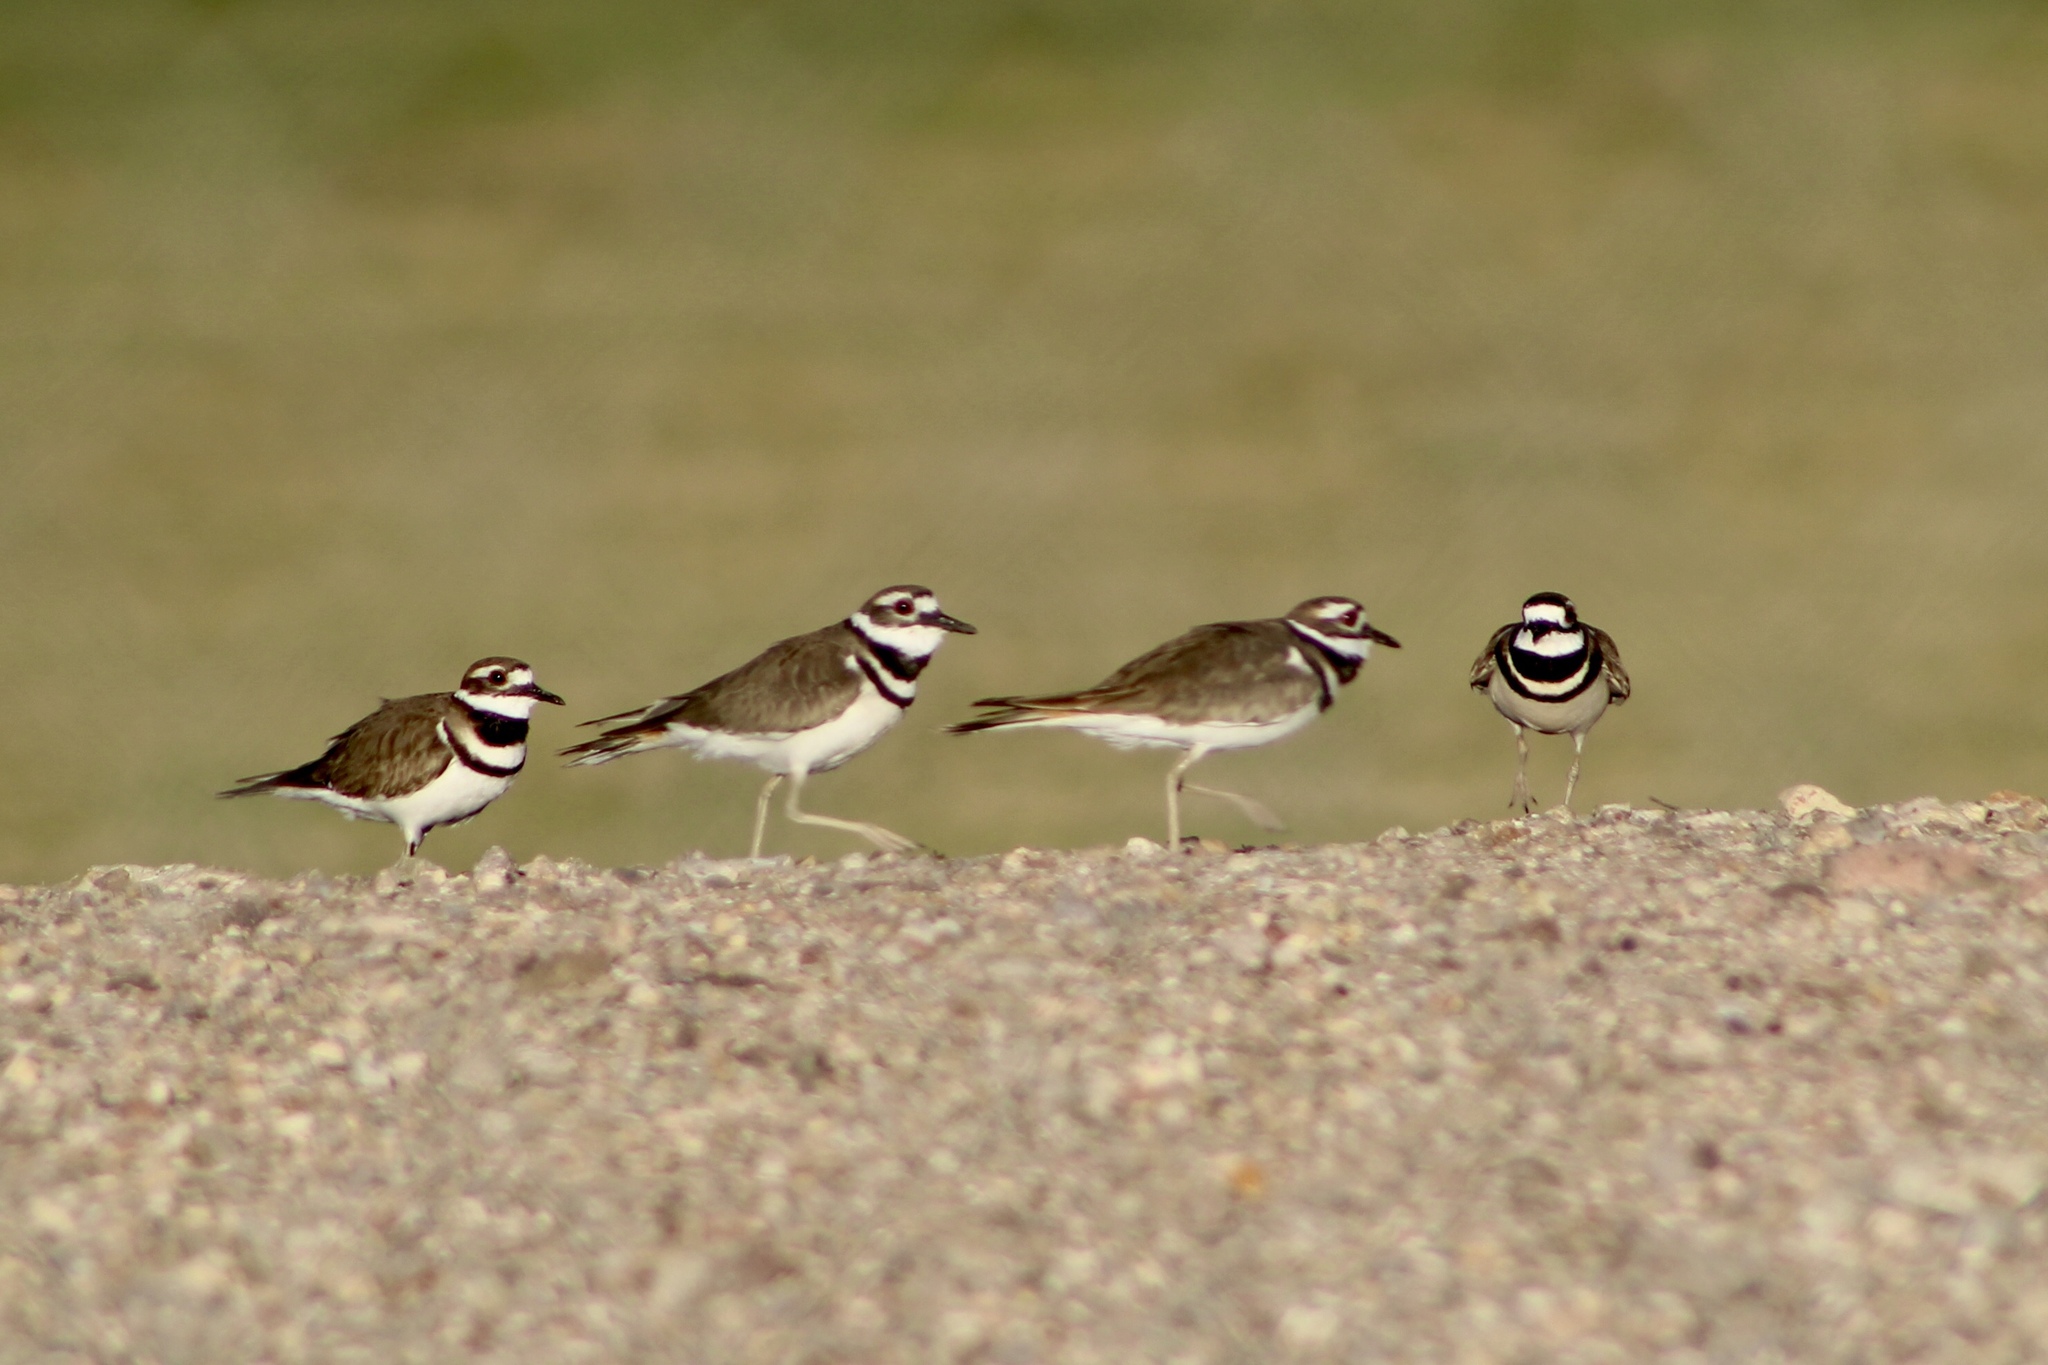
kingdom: Animalia
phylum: Chordata
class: Aves
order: Charadriiformes
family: Charadriidae
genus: Charadrius
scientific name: Charadrius vociferus
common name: Killdeer
